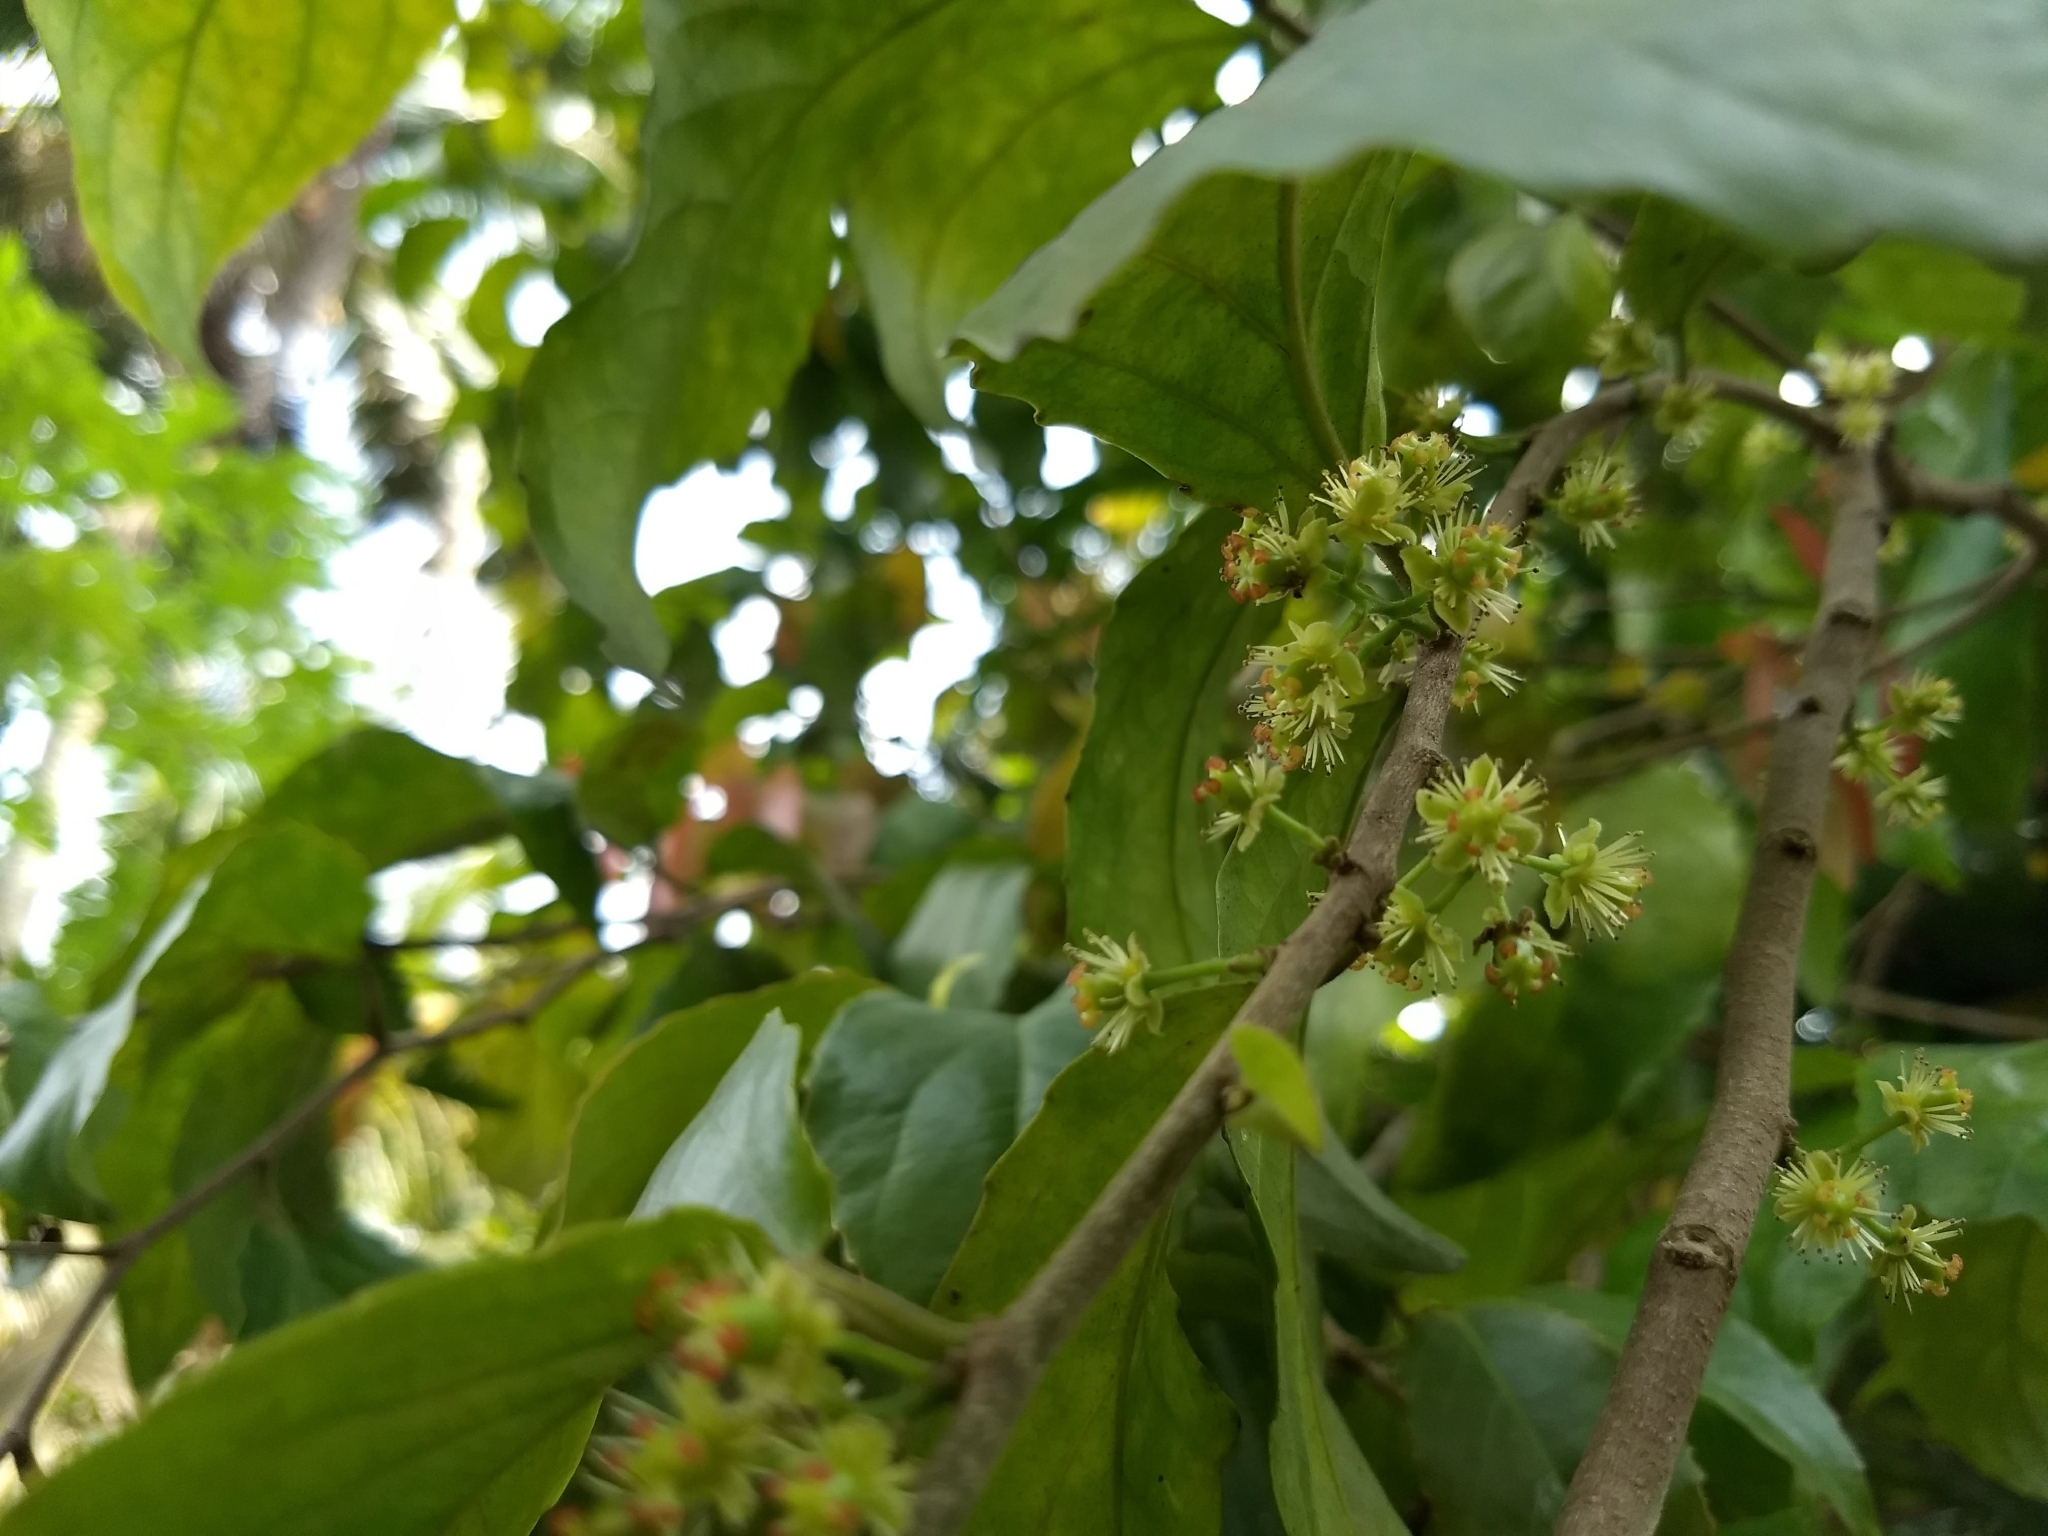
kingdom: Plantae
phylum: Tracheophyta
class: Magnoliopsida
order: Malpighiales
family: Salicaceae
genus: Flacourtia
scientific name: Flacourtia inermis
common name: Plum-of-martinique
